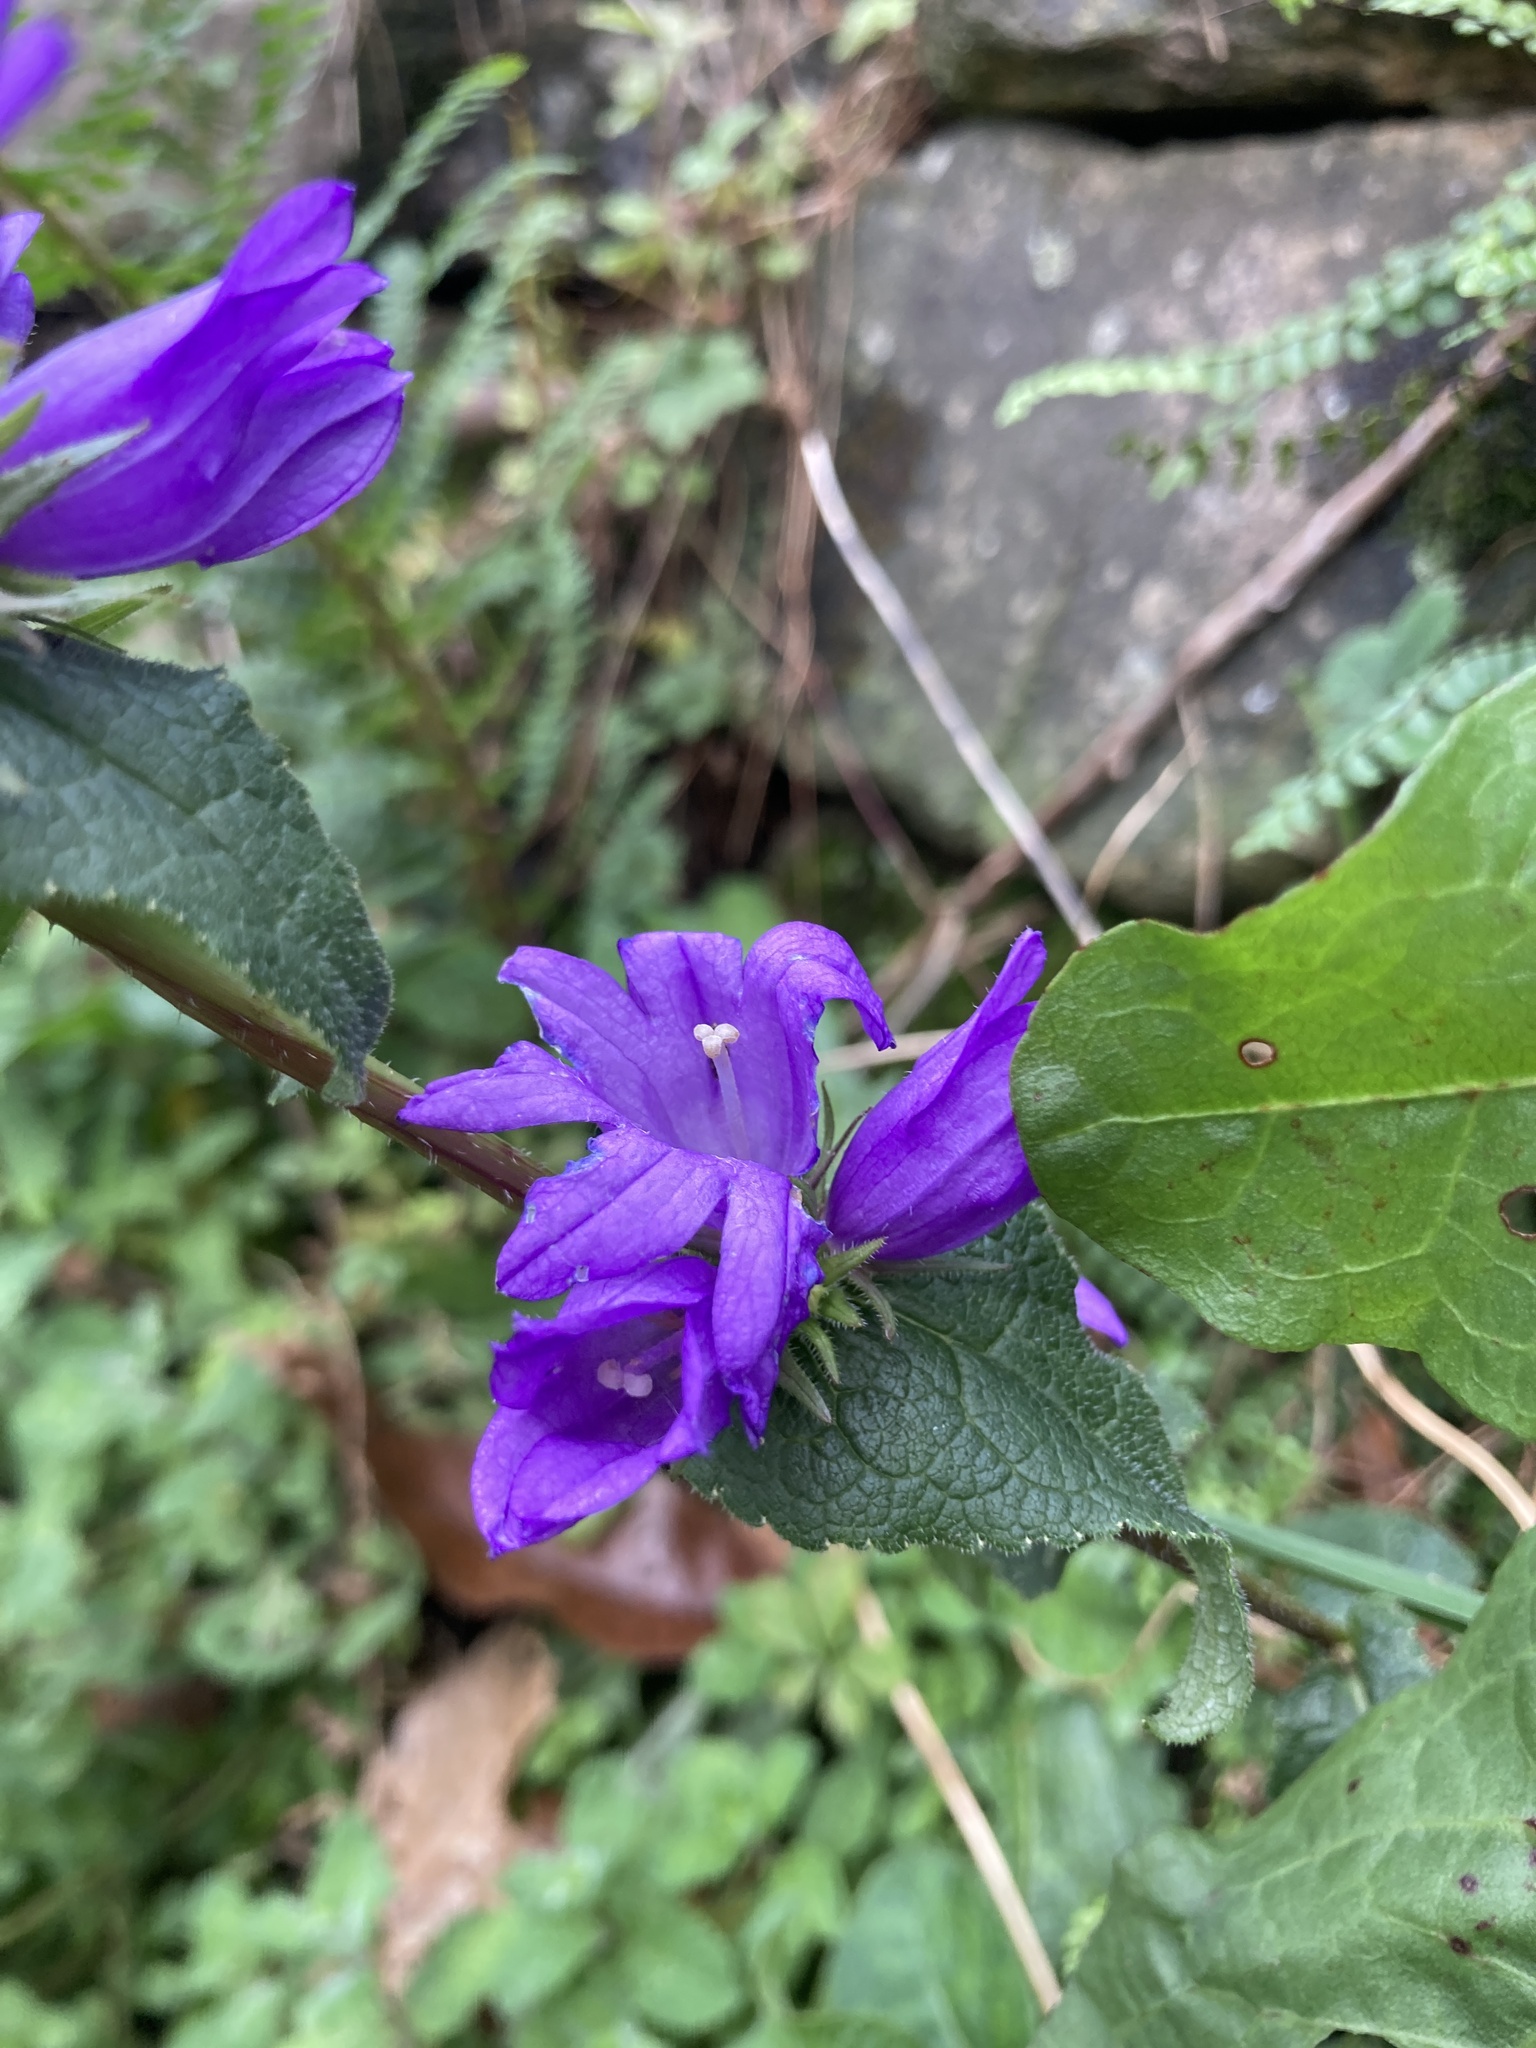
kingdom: Plantae
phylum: Tracheophyta
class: Magnoliopsida
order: Asterales
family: Campanulaceae
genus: Campanula
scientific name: Campanula glomerata
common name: Clustered bellflower
